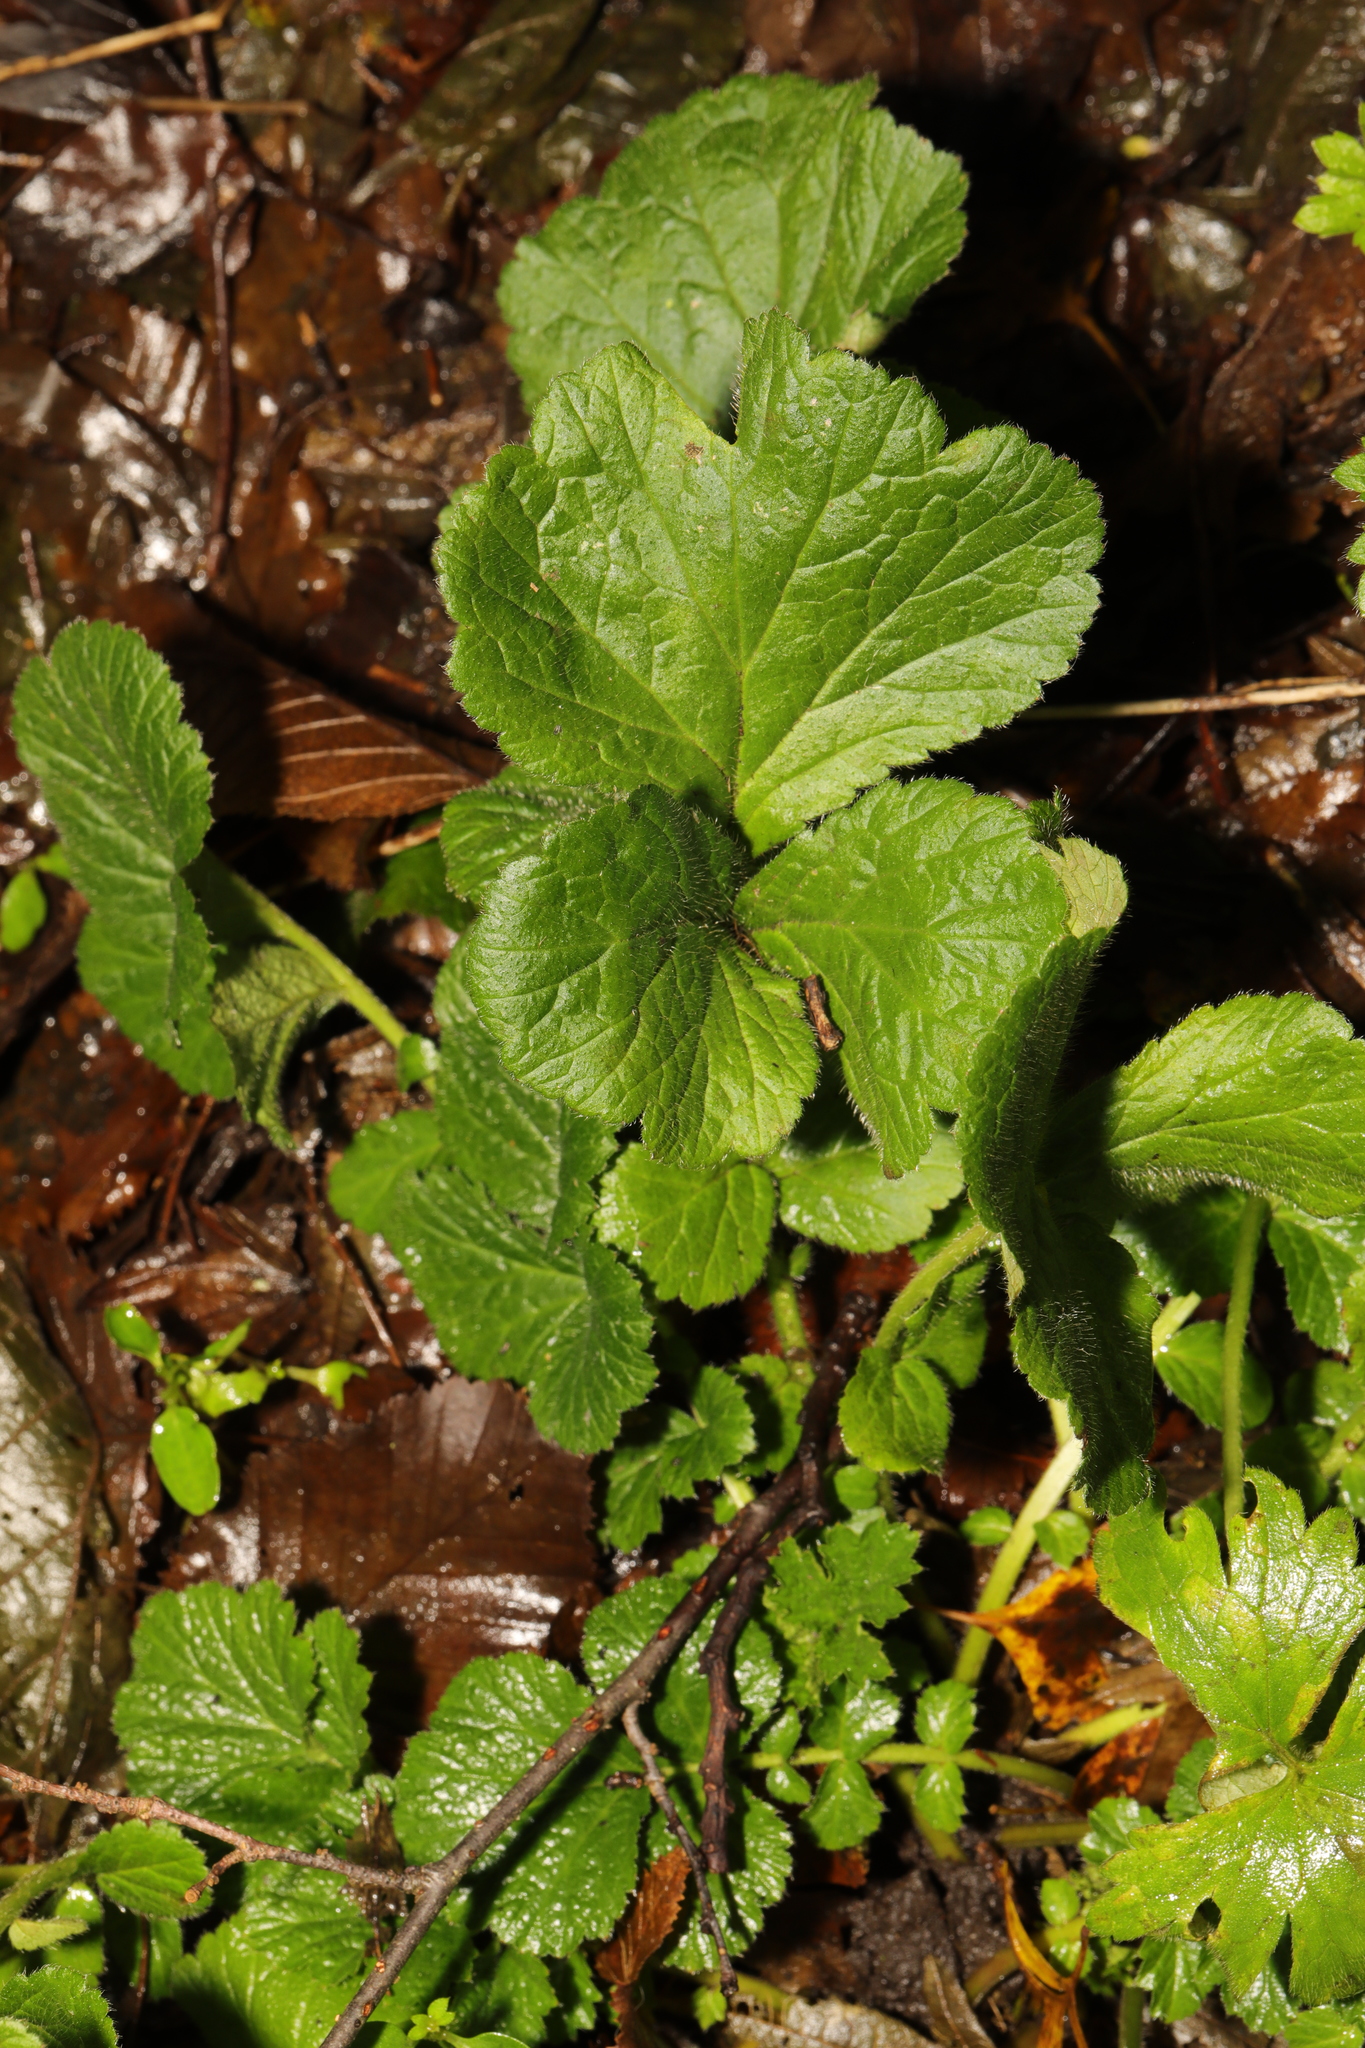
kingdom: Plantae
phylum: Tracheophyta
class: Magnoliopsida
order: Rosales
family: Rosaceae
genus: Geum
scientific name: Geum urbanum
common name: Wood avens
